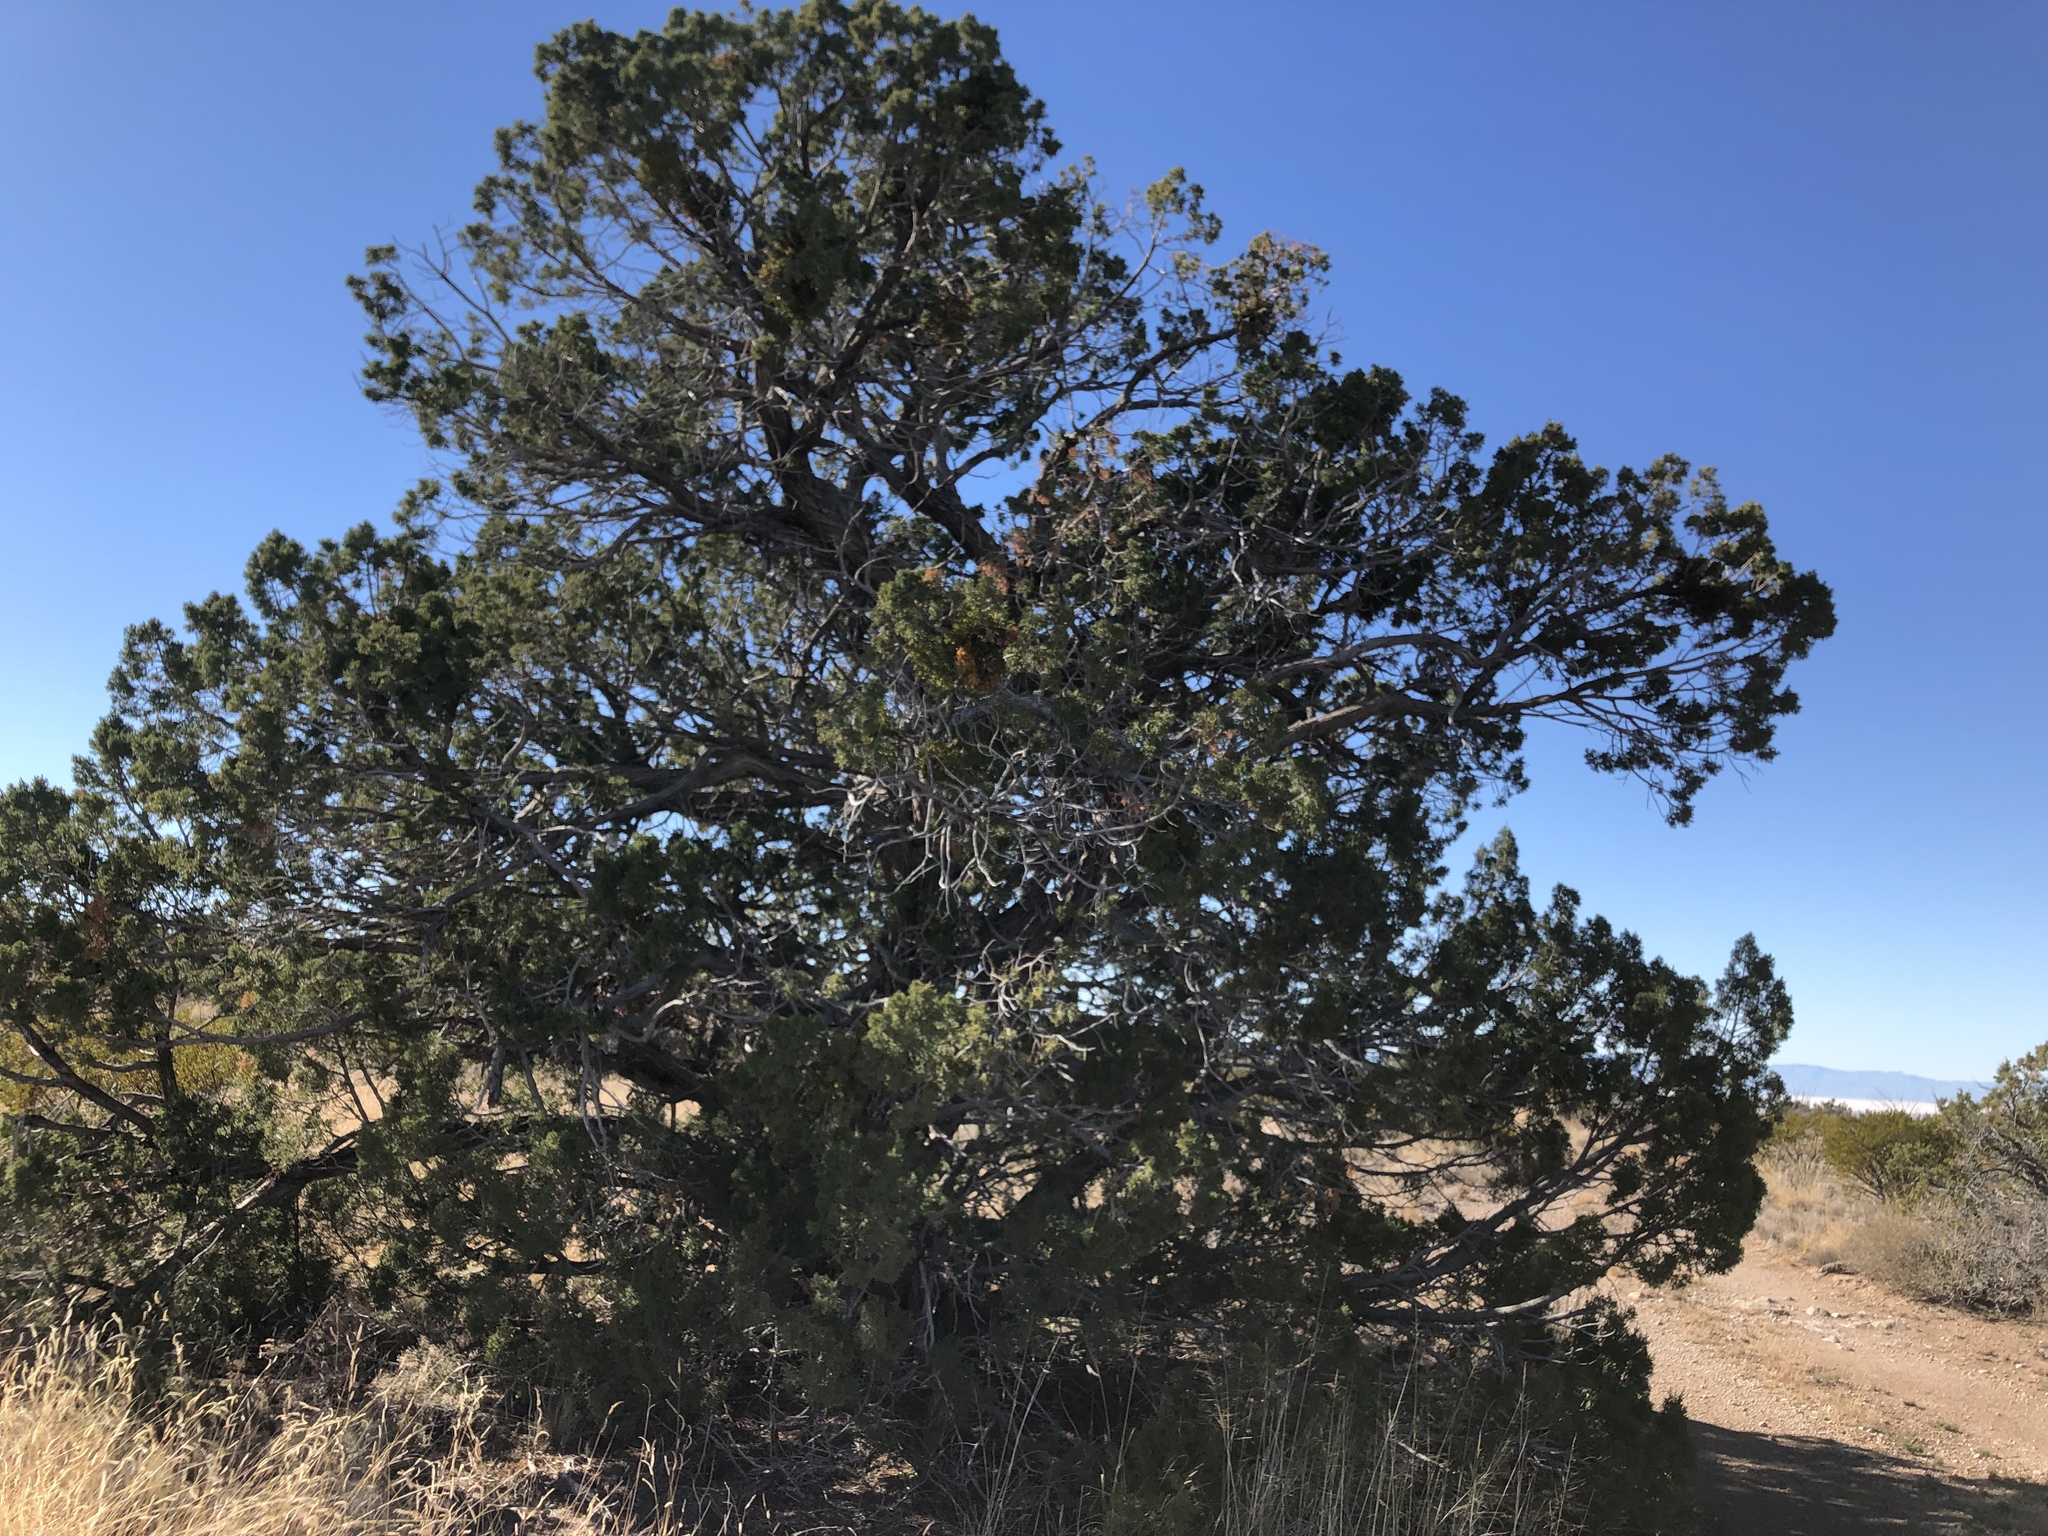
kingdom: Plantae
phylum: Tracheophyta
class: Pinopsida
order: Pinales
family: Cupressaceae
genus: Juniperus
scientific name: Juniperus monosperma
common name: One-seed juniper
